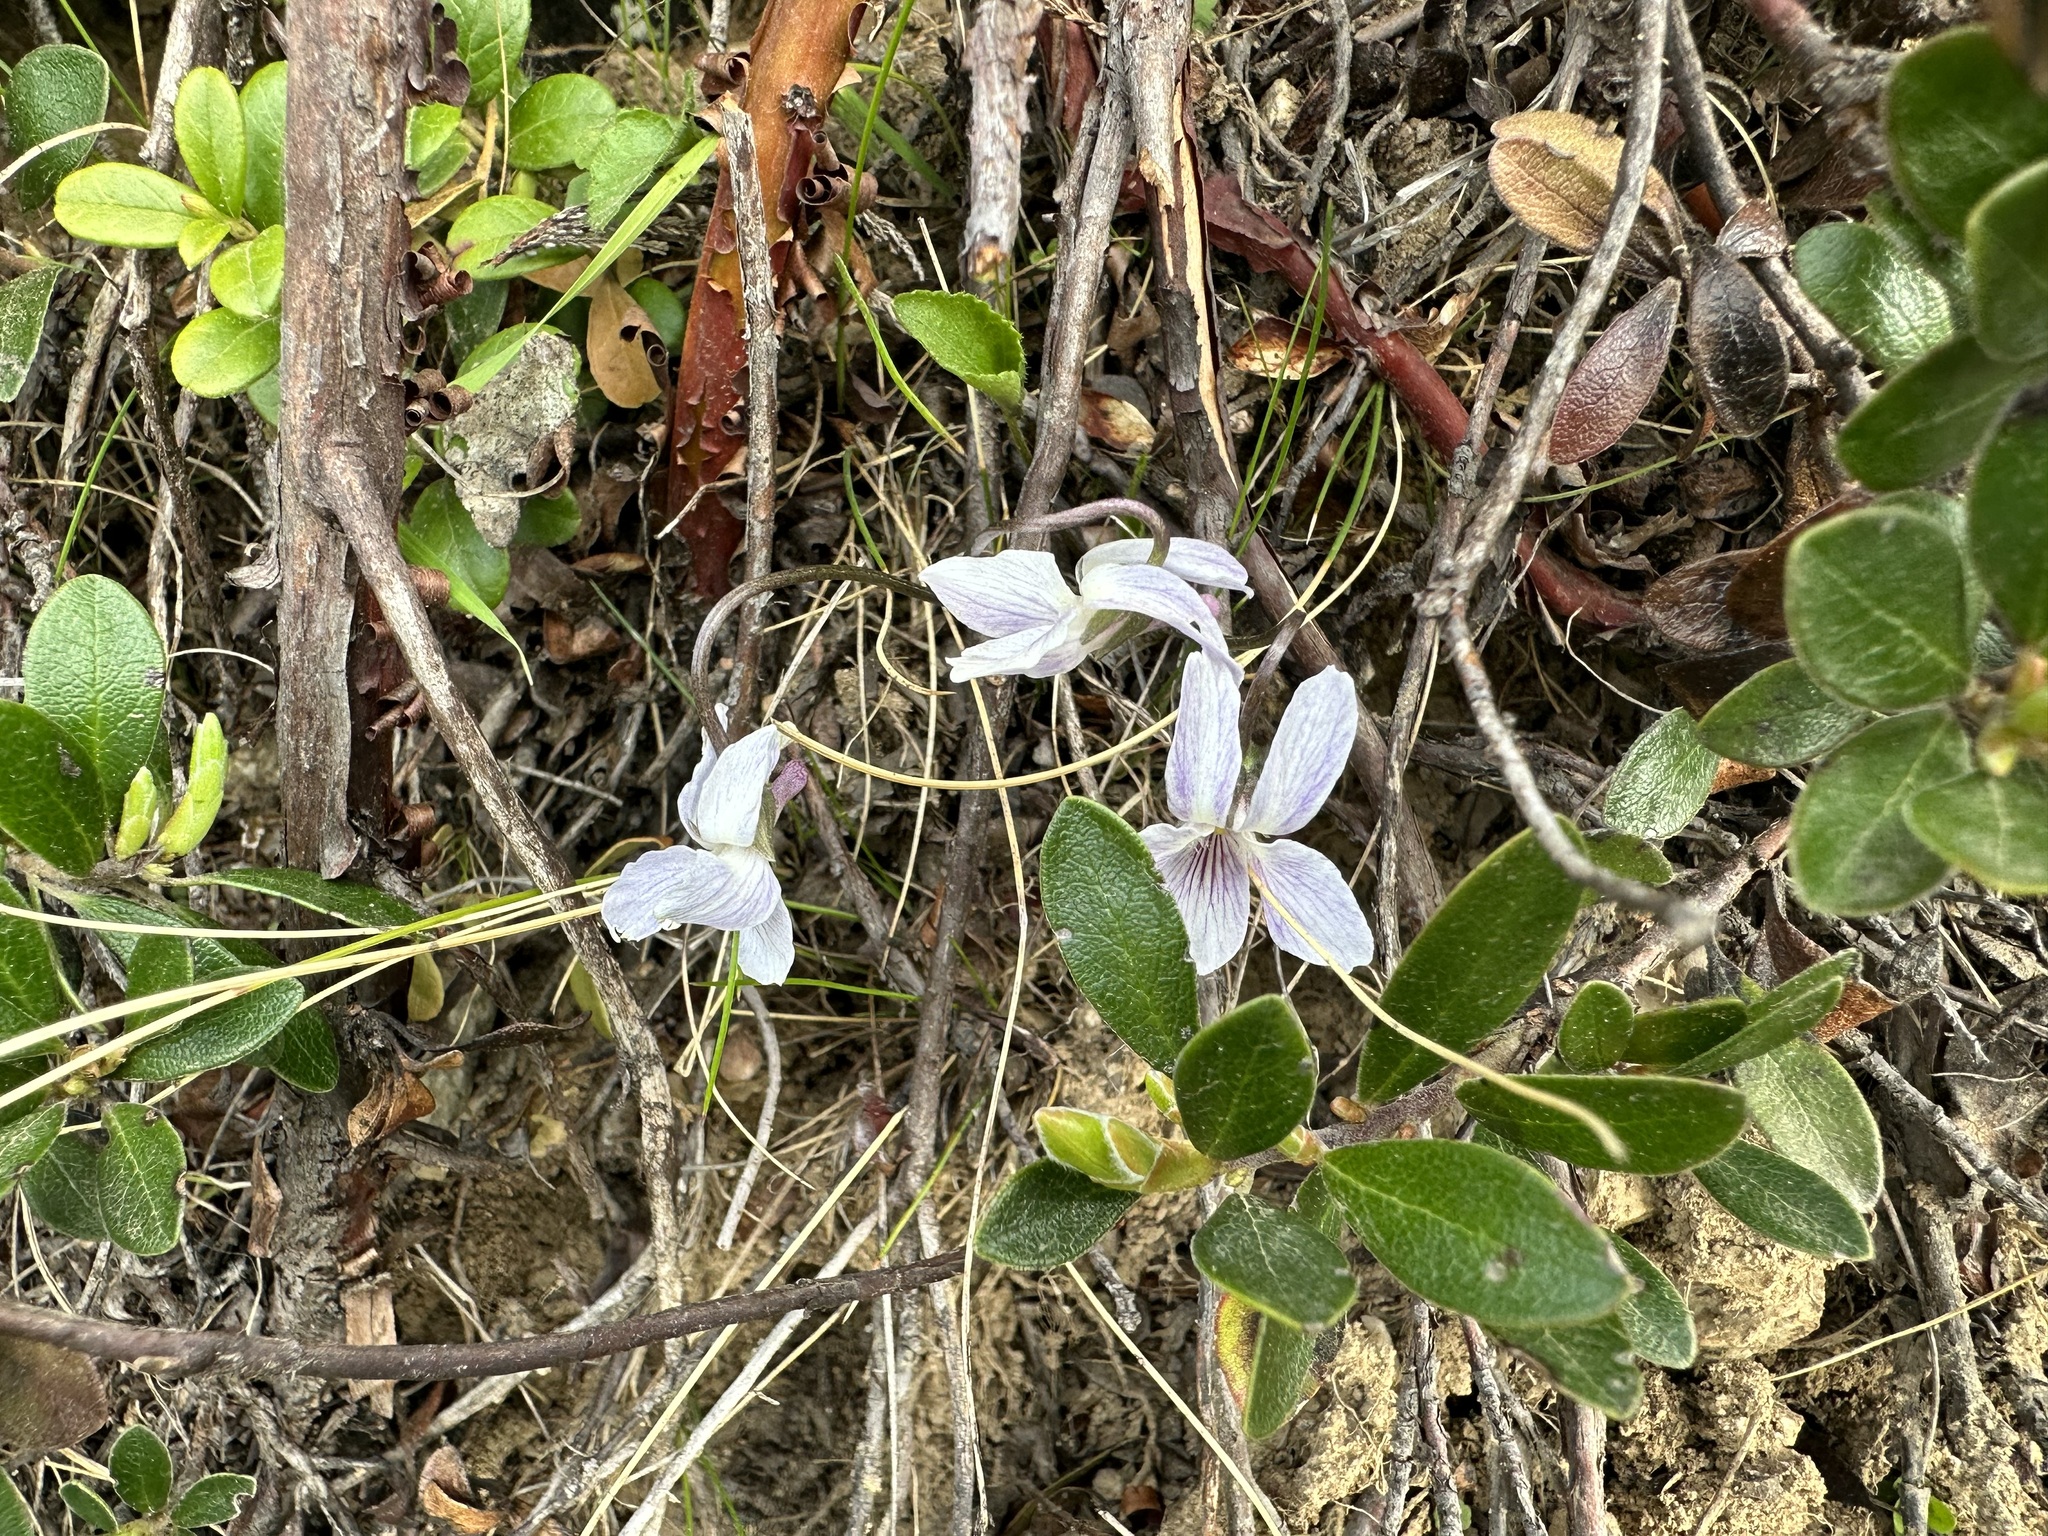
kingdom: Plantae
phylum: Tracheophyta
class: Magnoliopsida
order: Malpighiales
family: Violaceae
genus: Viola
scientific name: Viola thomasiana
